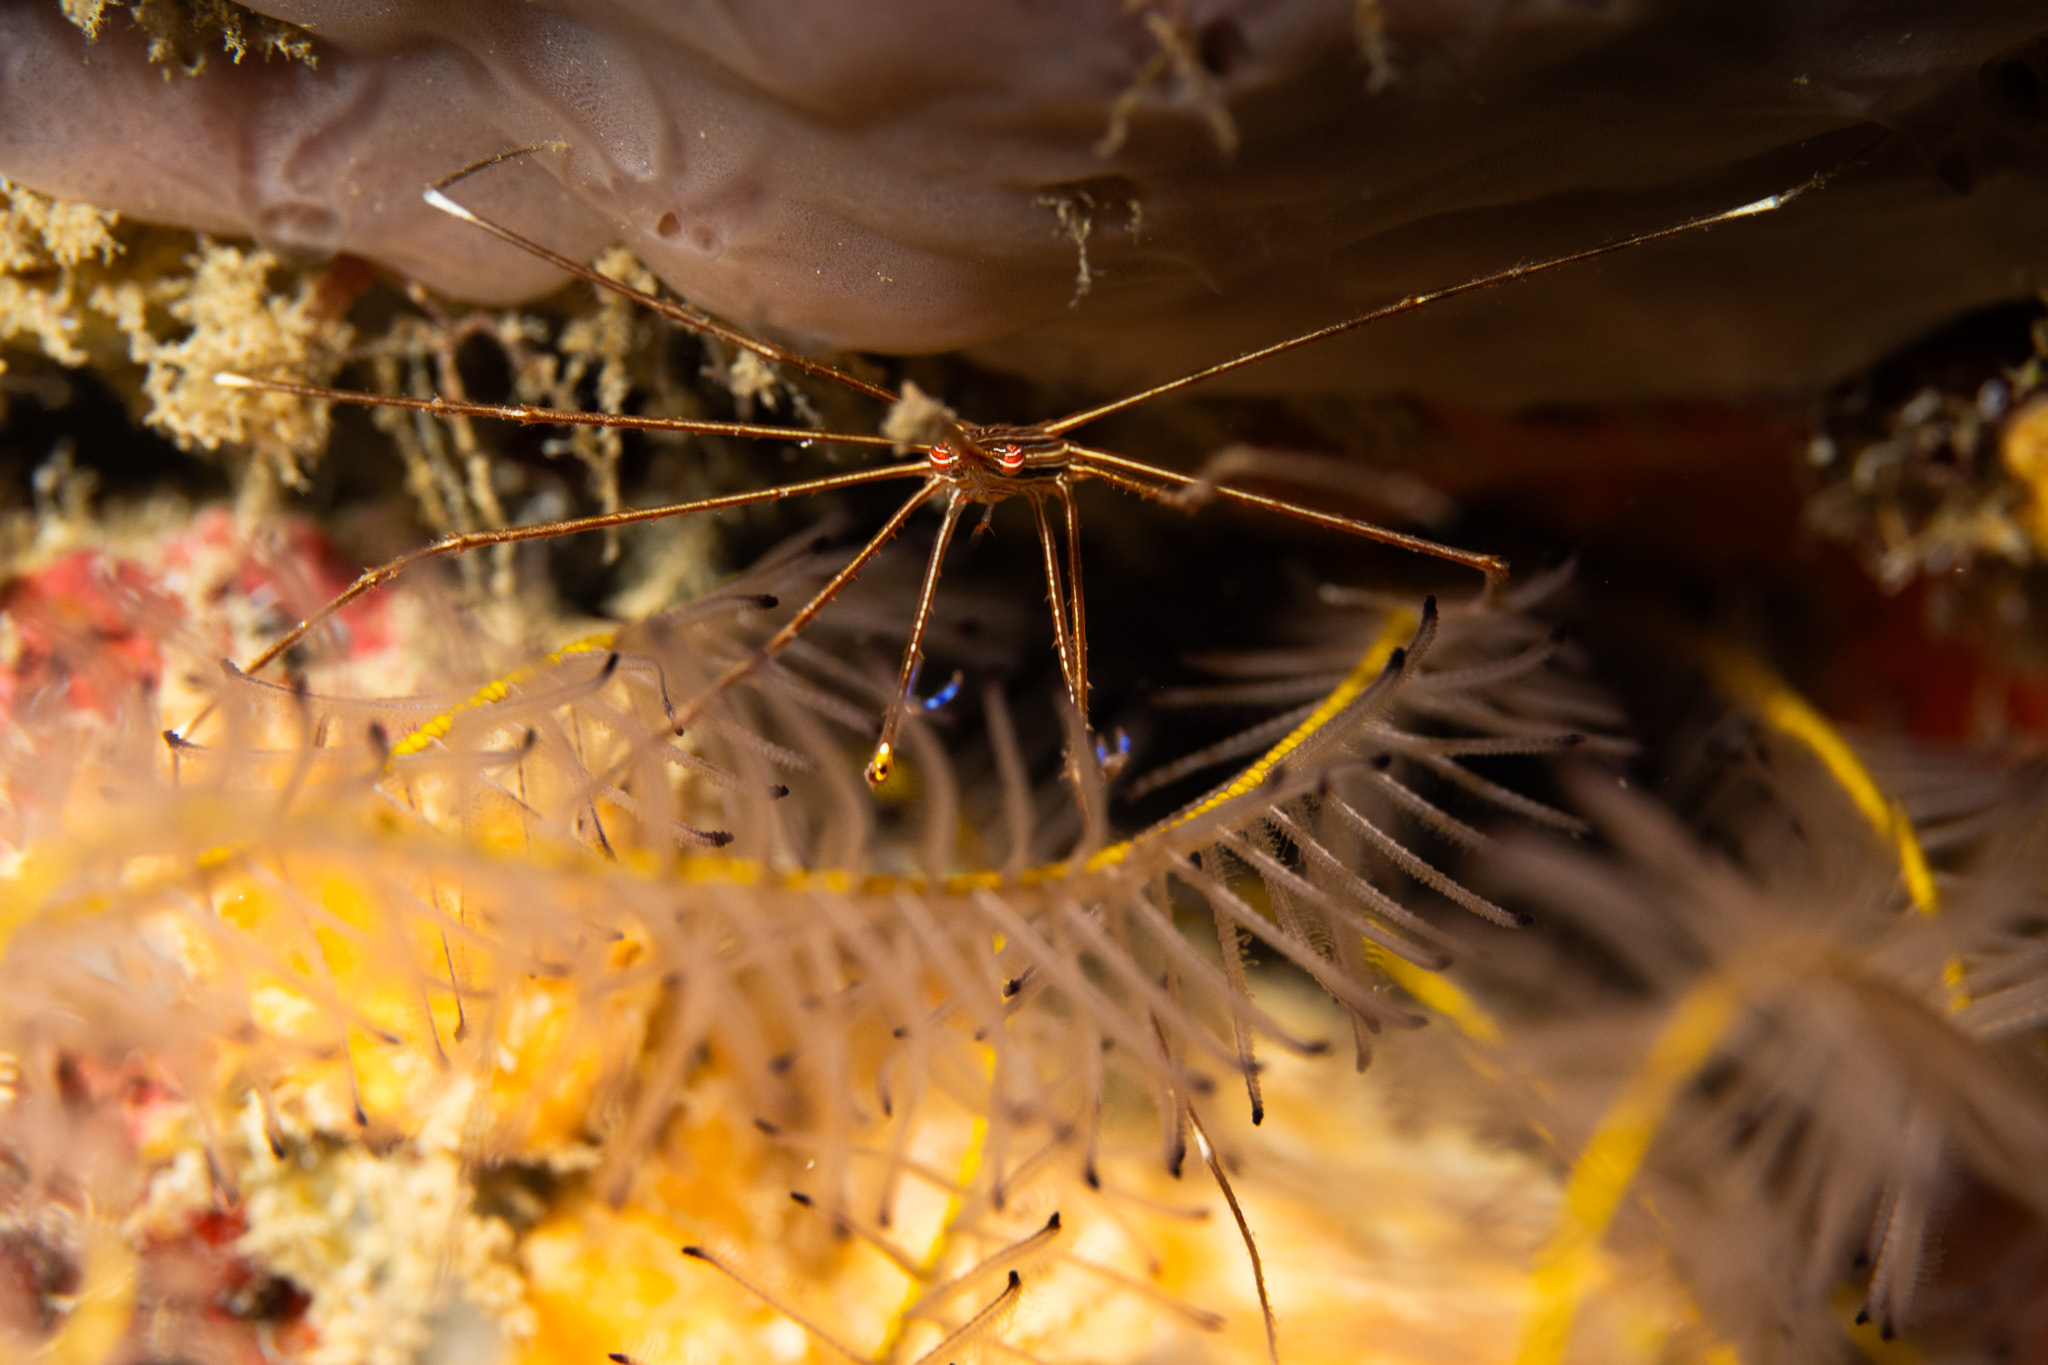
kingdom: Animalia
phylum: Arthropoda
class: Malacostraca
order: Decapoda
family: Inachoididae
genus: Stenorhynchus
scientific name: Stenorhynchus seticornis
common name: Arrow crab
